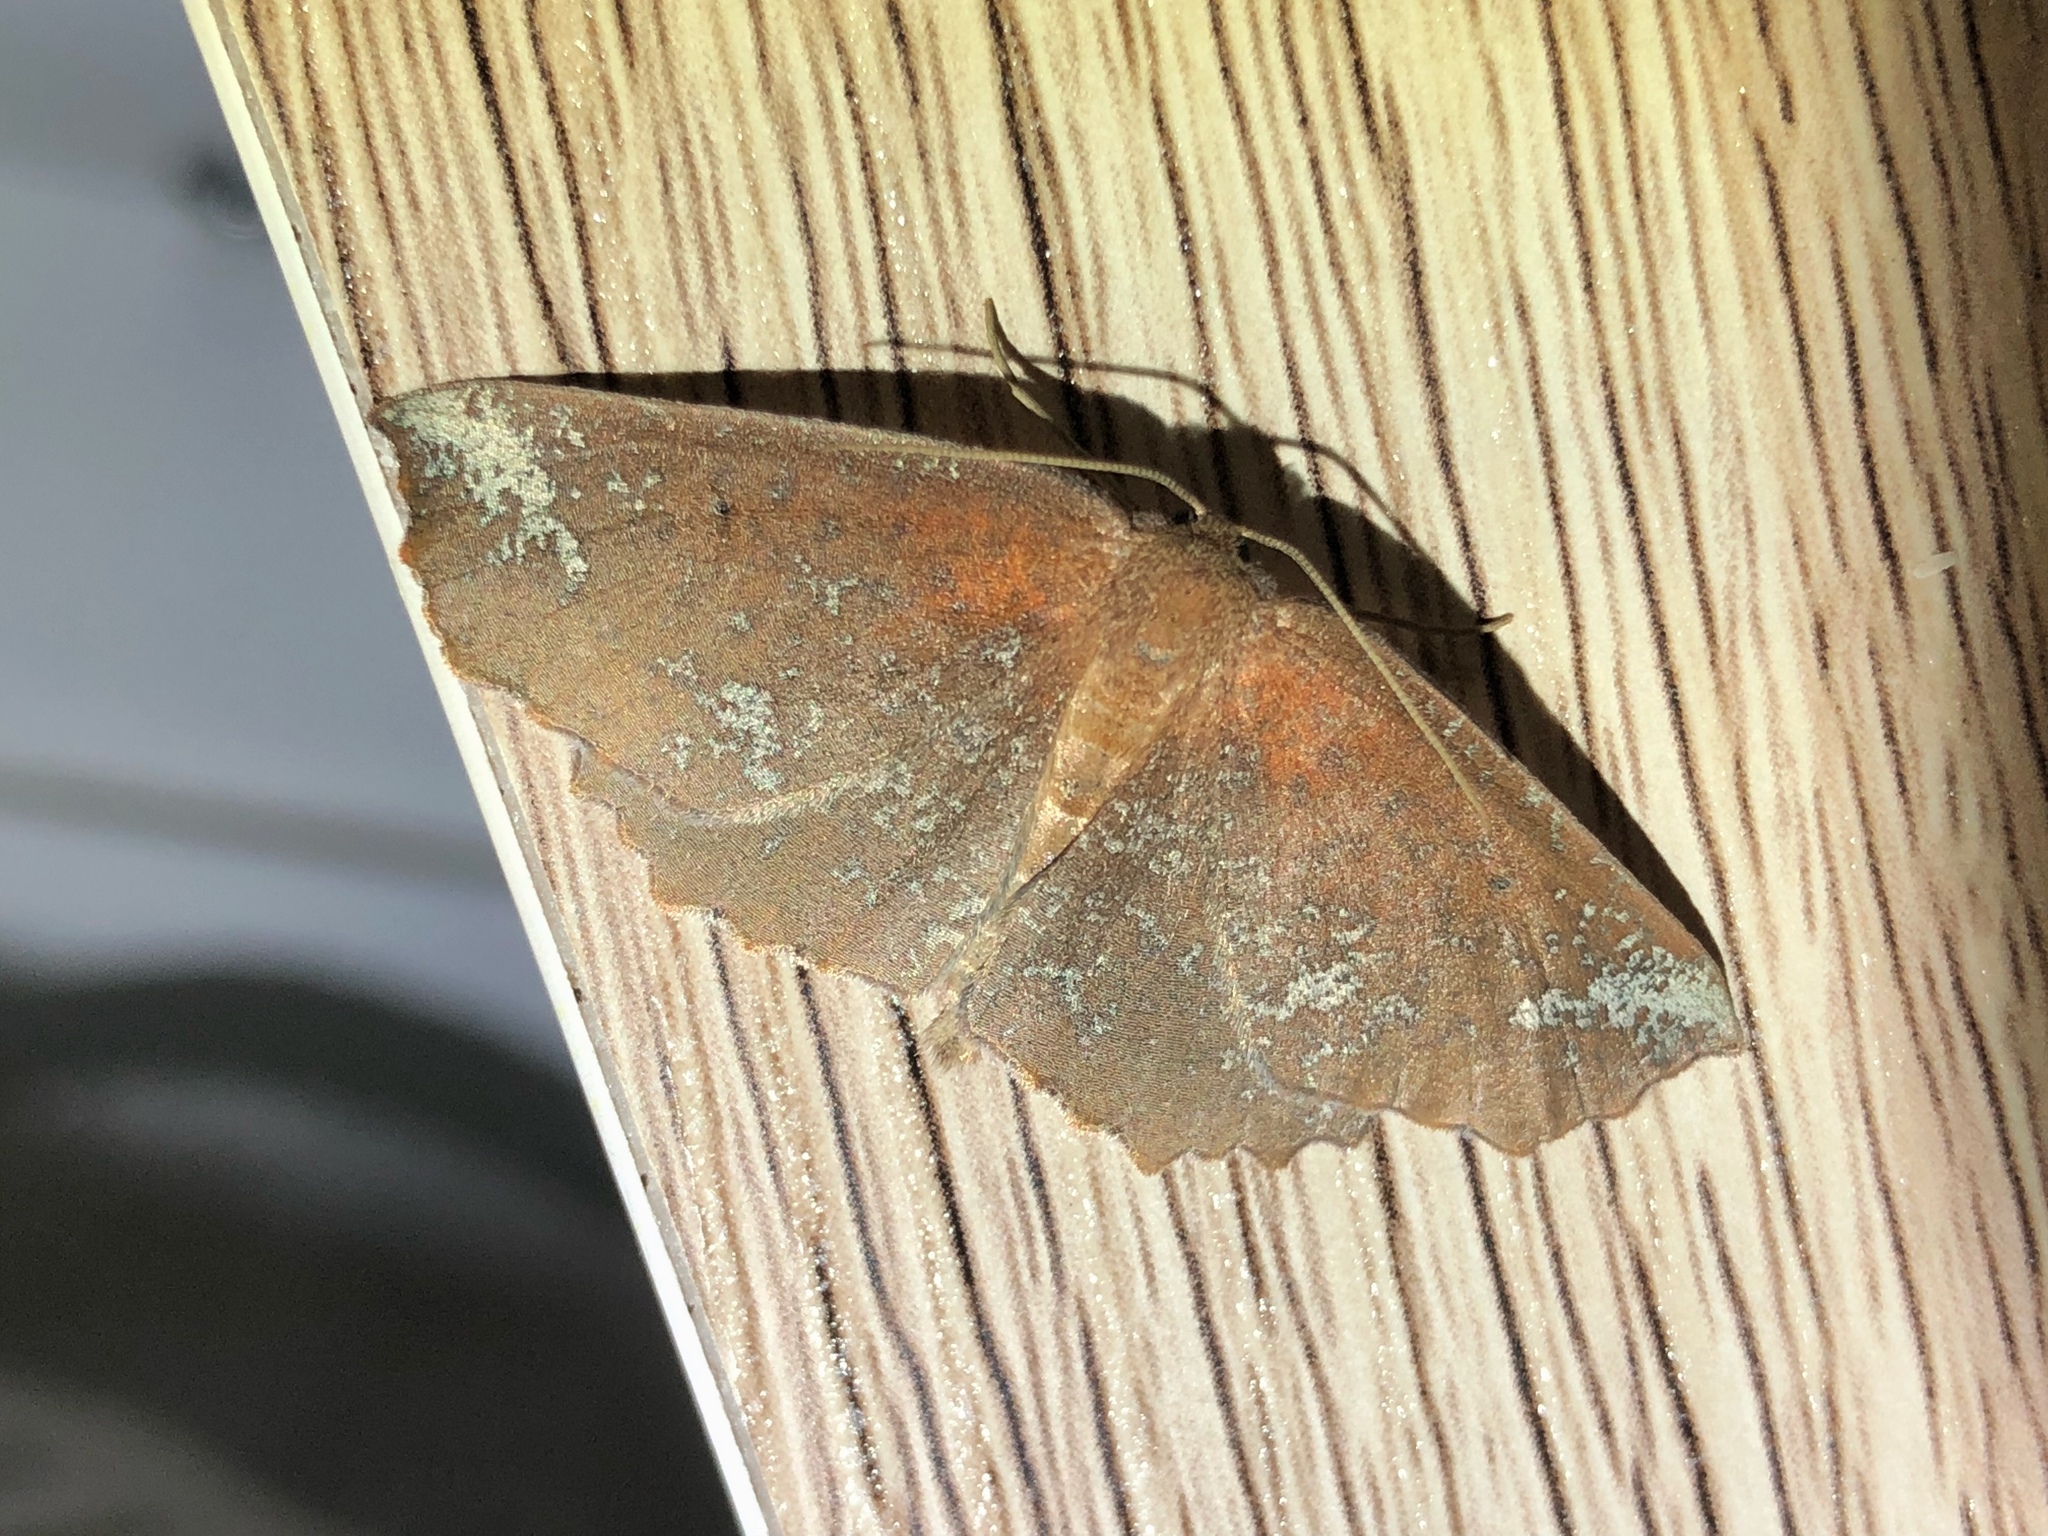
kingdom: Animalia
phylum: Arthropoda
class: Insecta
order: Lepidoptera
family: Geometridae
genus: Xyridacma
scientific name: Xyridacma ustaria
